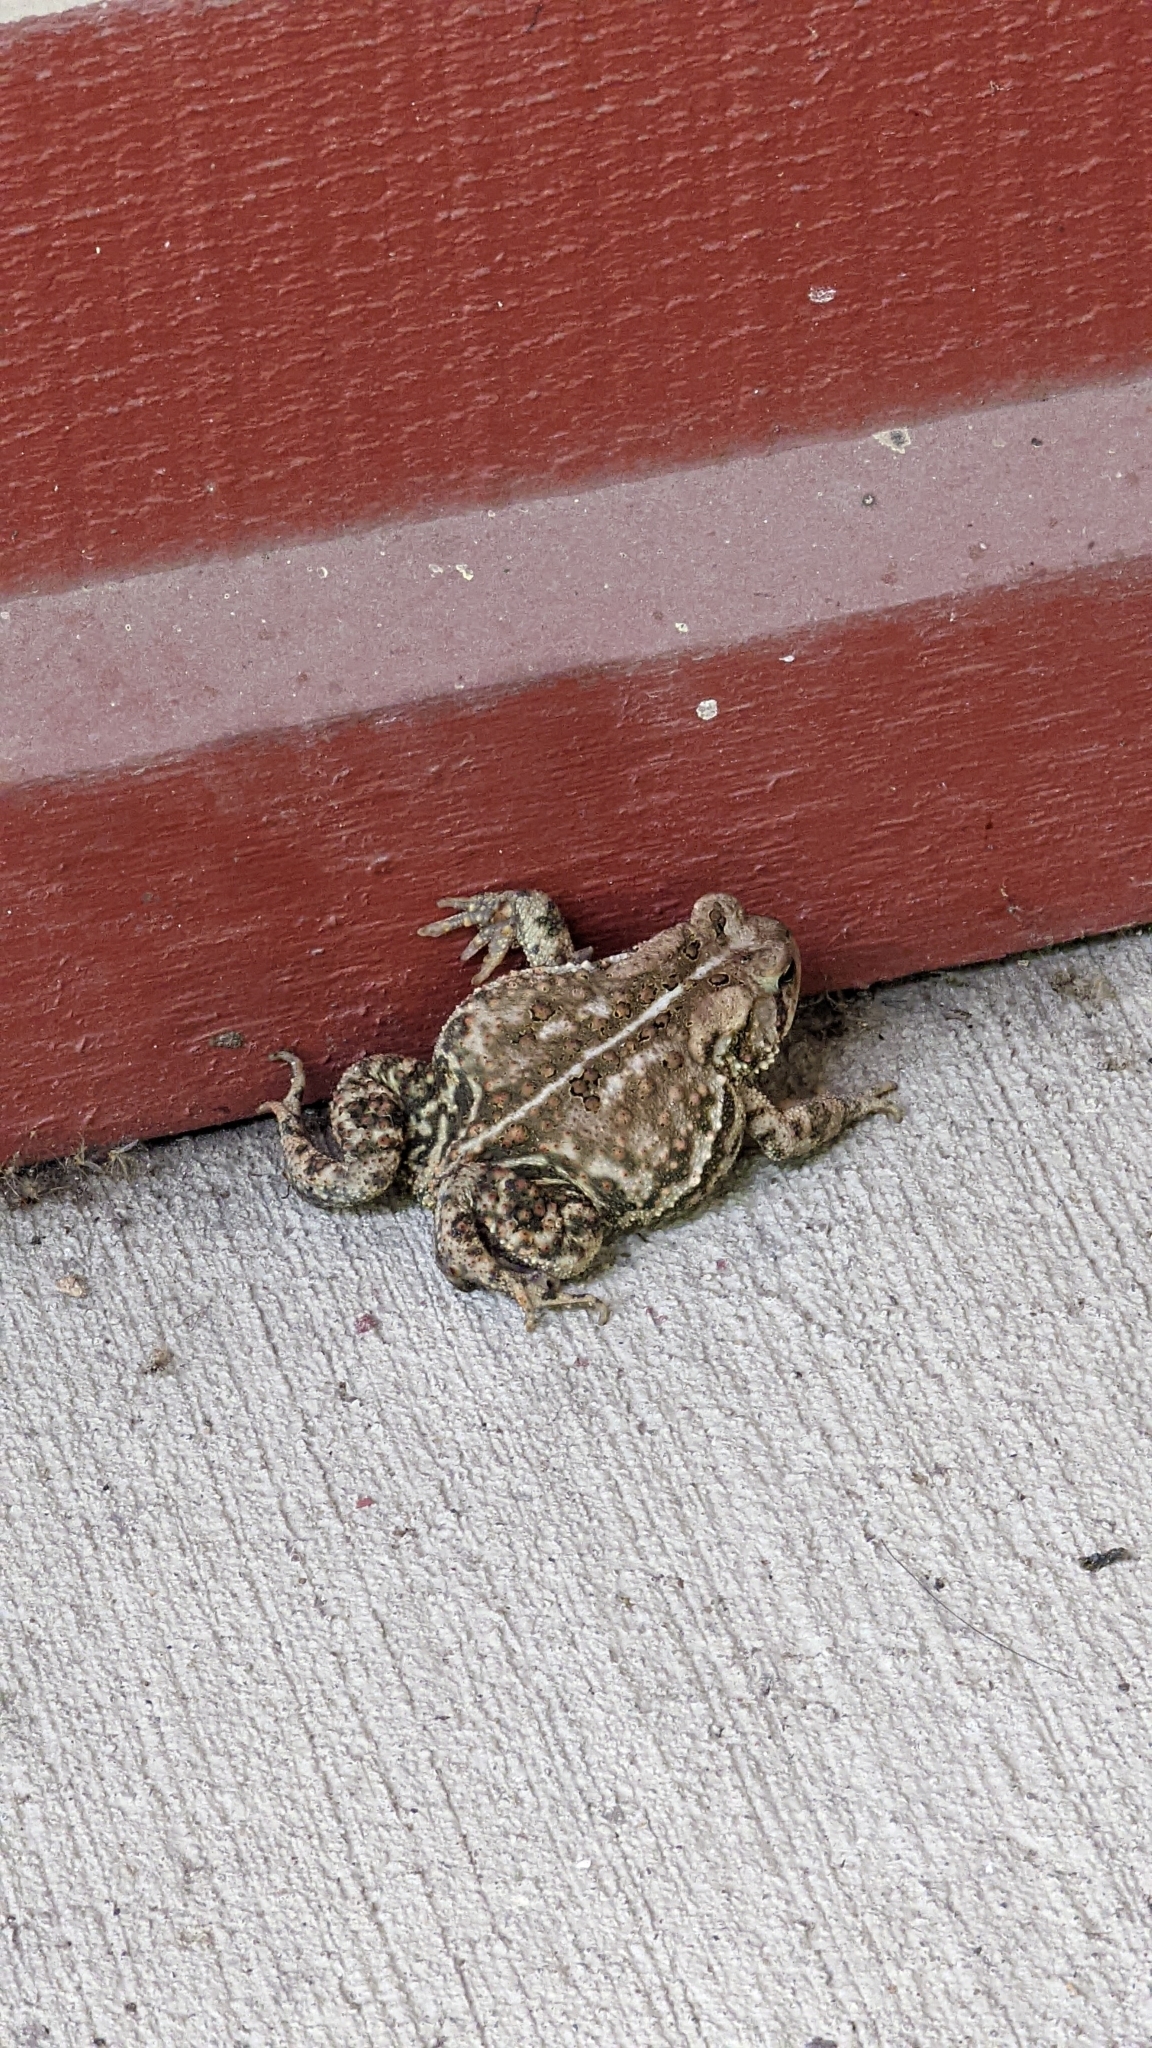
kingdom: Animalia
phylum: Chordata
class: Amphibia
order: Anura
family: Bufonidae
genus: Anaxyrus
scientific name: Anaxyrus americanus
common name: American toad
